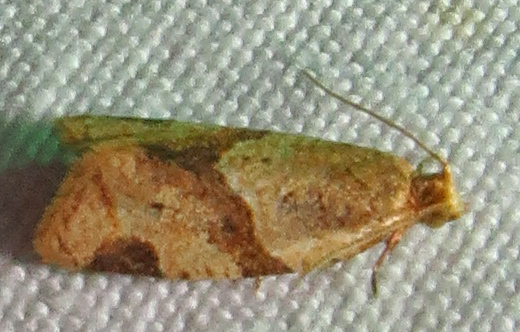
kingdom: Animalia
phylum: Arthropoda
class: Insecta
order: Lepidoptera
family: Tortricidae
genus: Clepsis
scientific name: Clepsis peritana
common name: Garden tortrix
